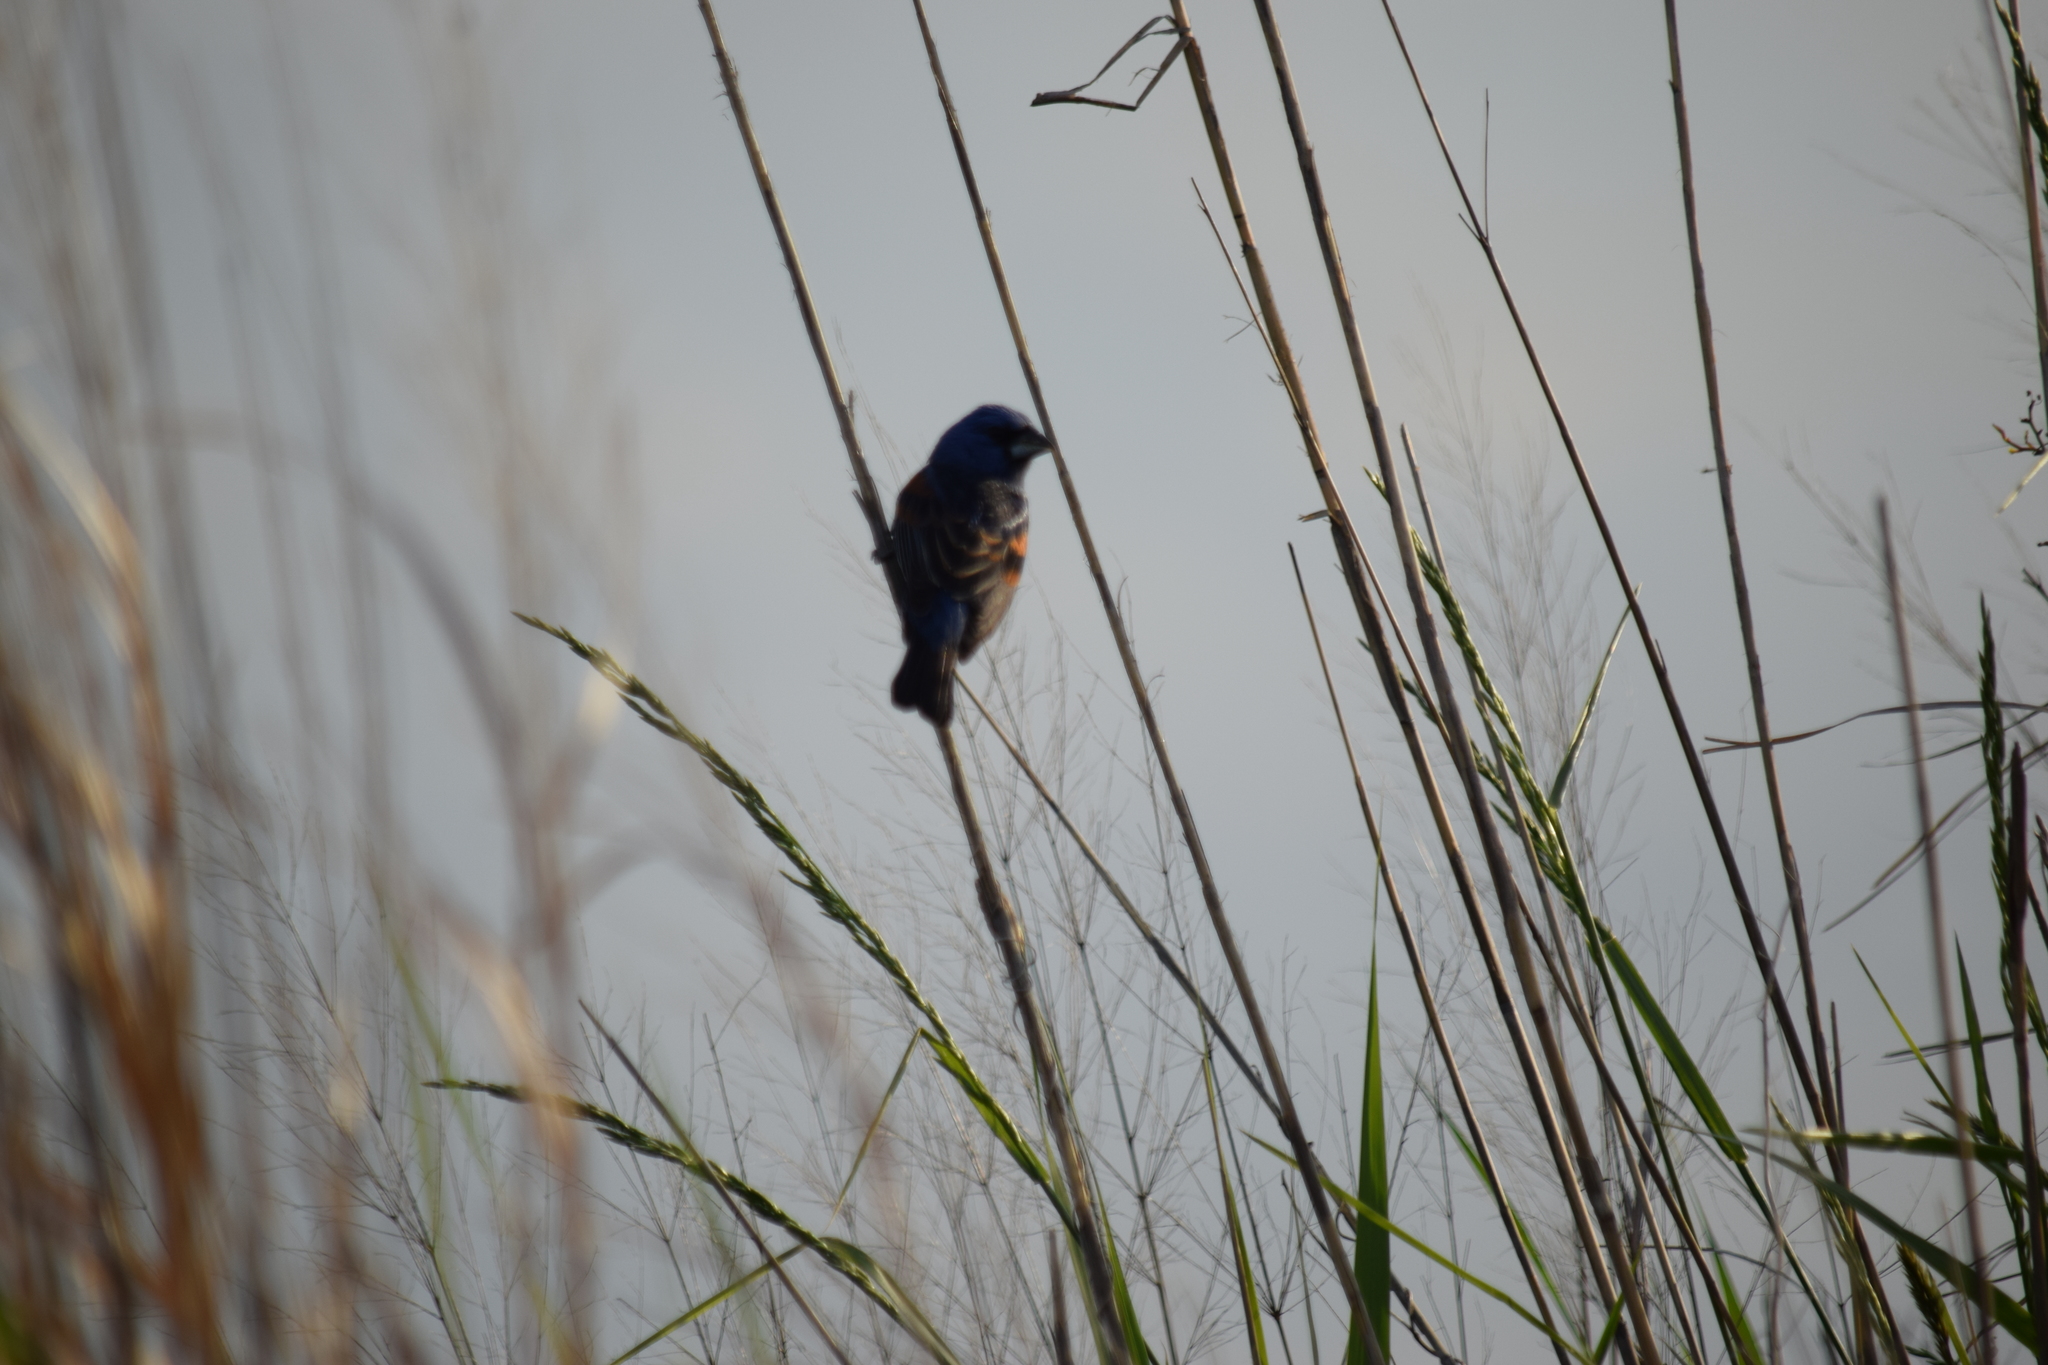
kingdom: Animalia
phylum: Chordata
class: Aves
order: Passeriformes
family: Cardinalidae
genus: Passerina
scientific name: Passerina caerulea
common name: Blue grosbeak
